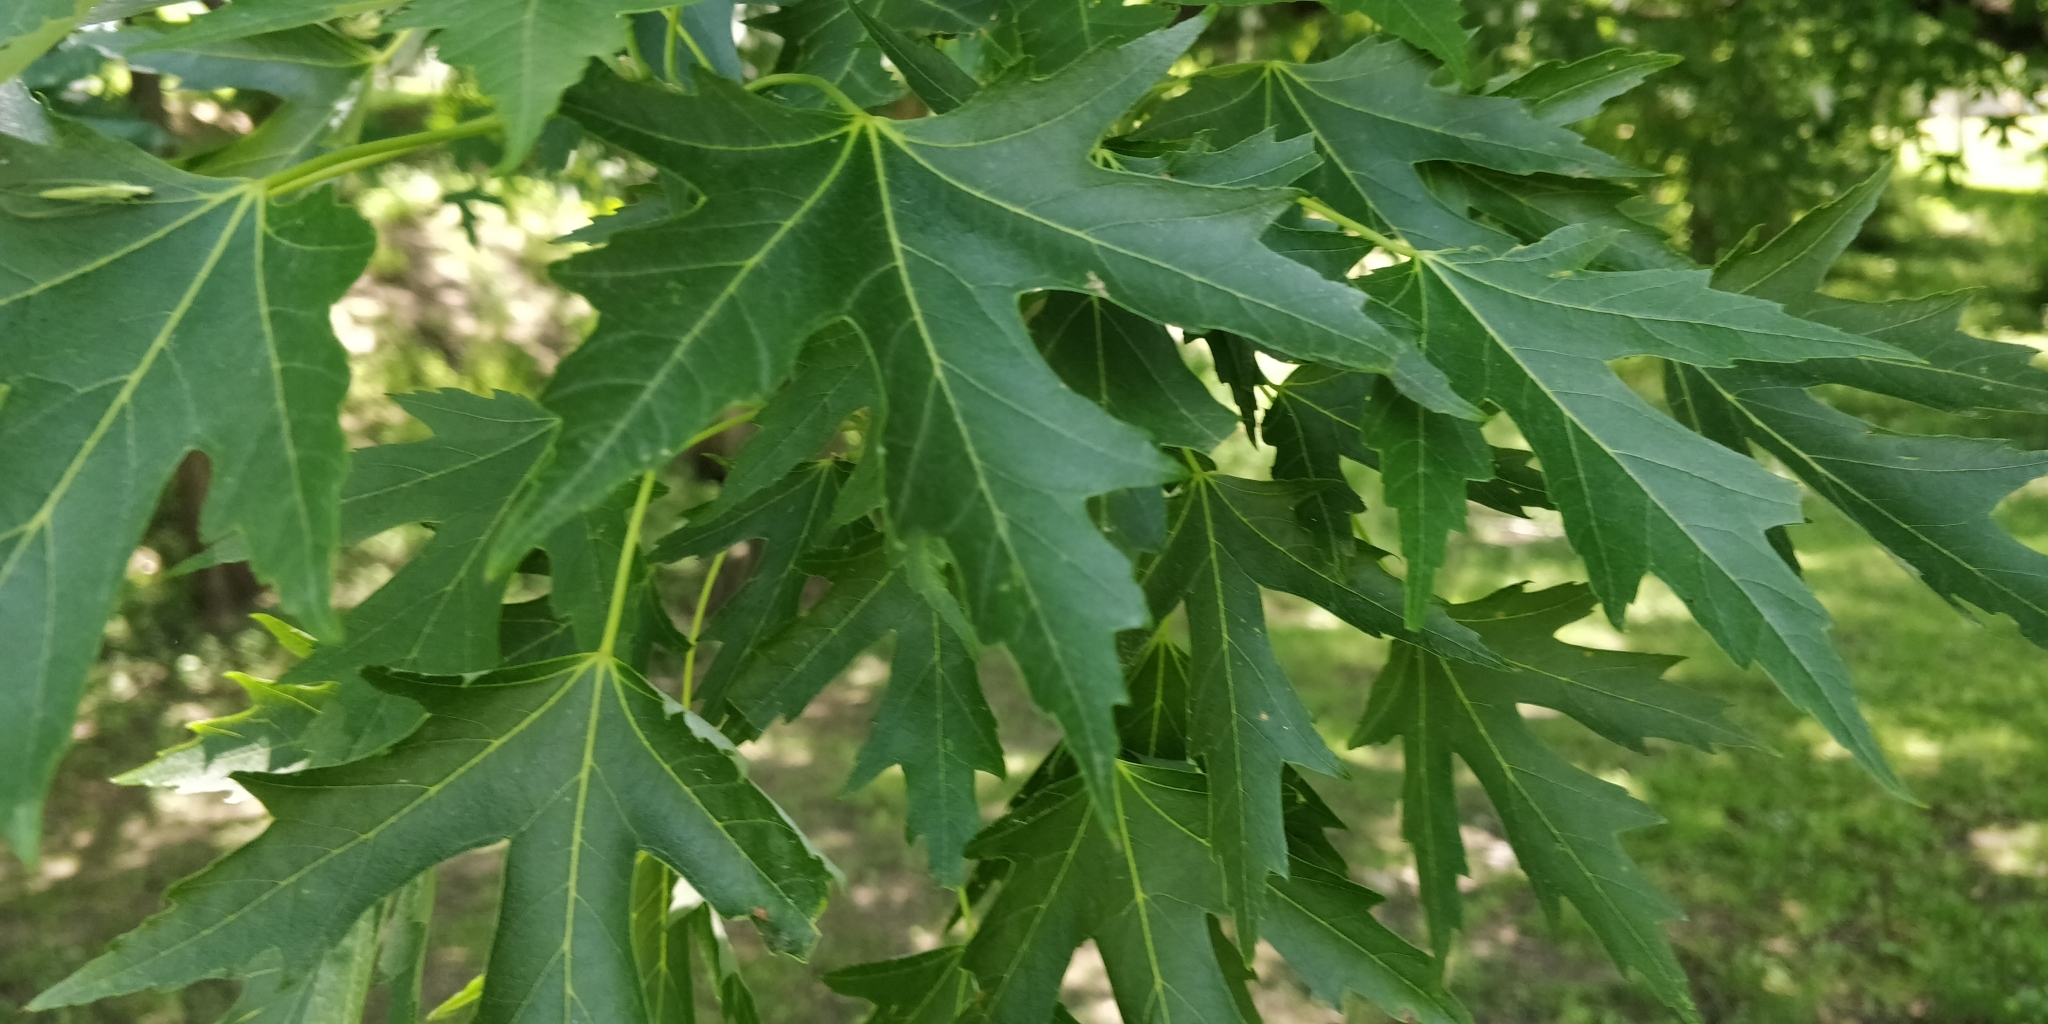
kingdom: Plantae
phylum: Tracheophyta
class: Magnoliopsida
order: Sapindales
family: Sapindaceae
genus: Acer
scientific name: Acer saccharinum
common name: Silver maple
